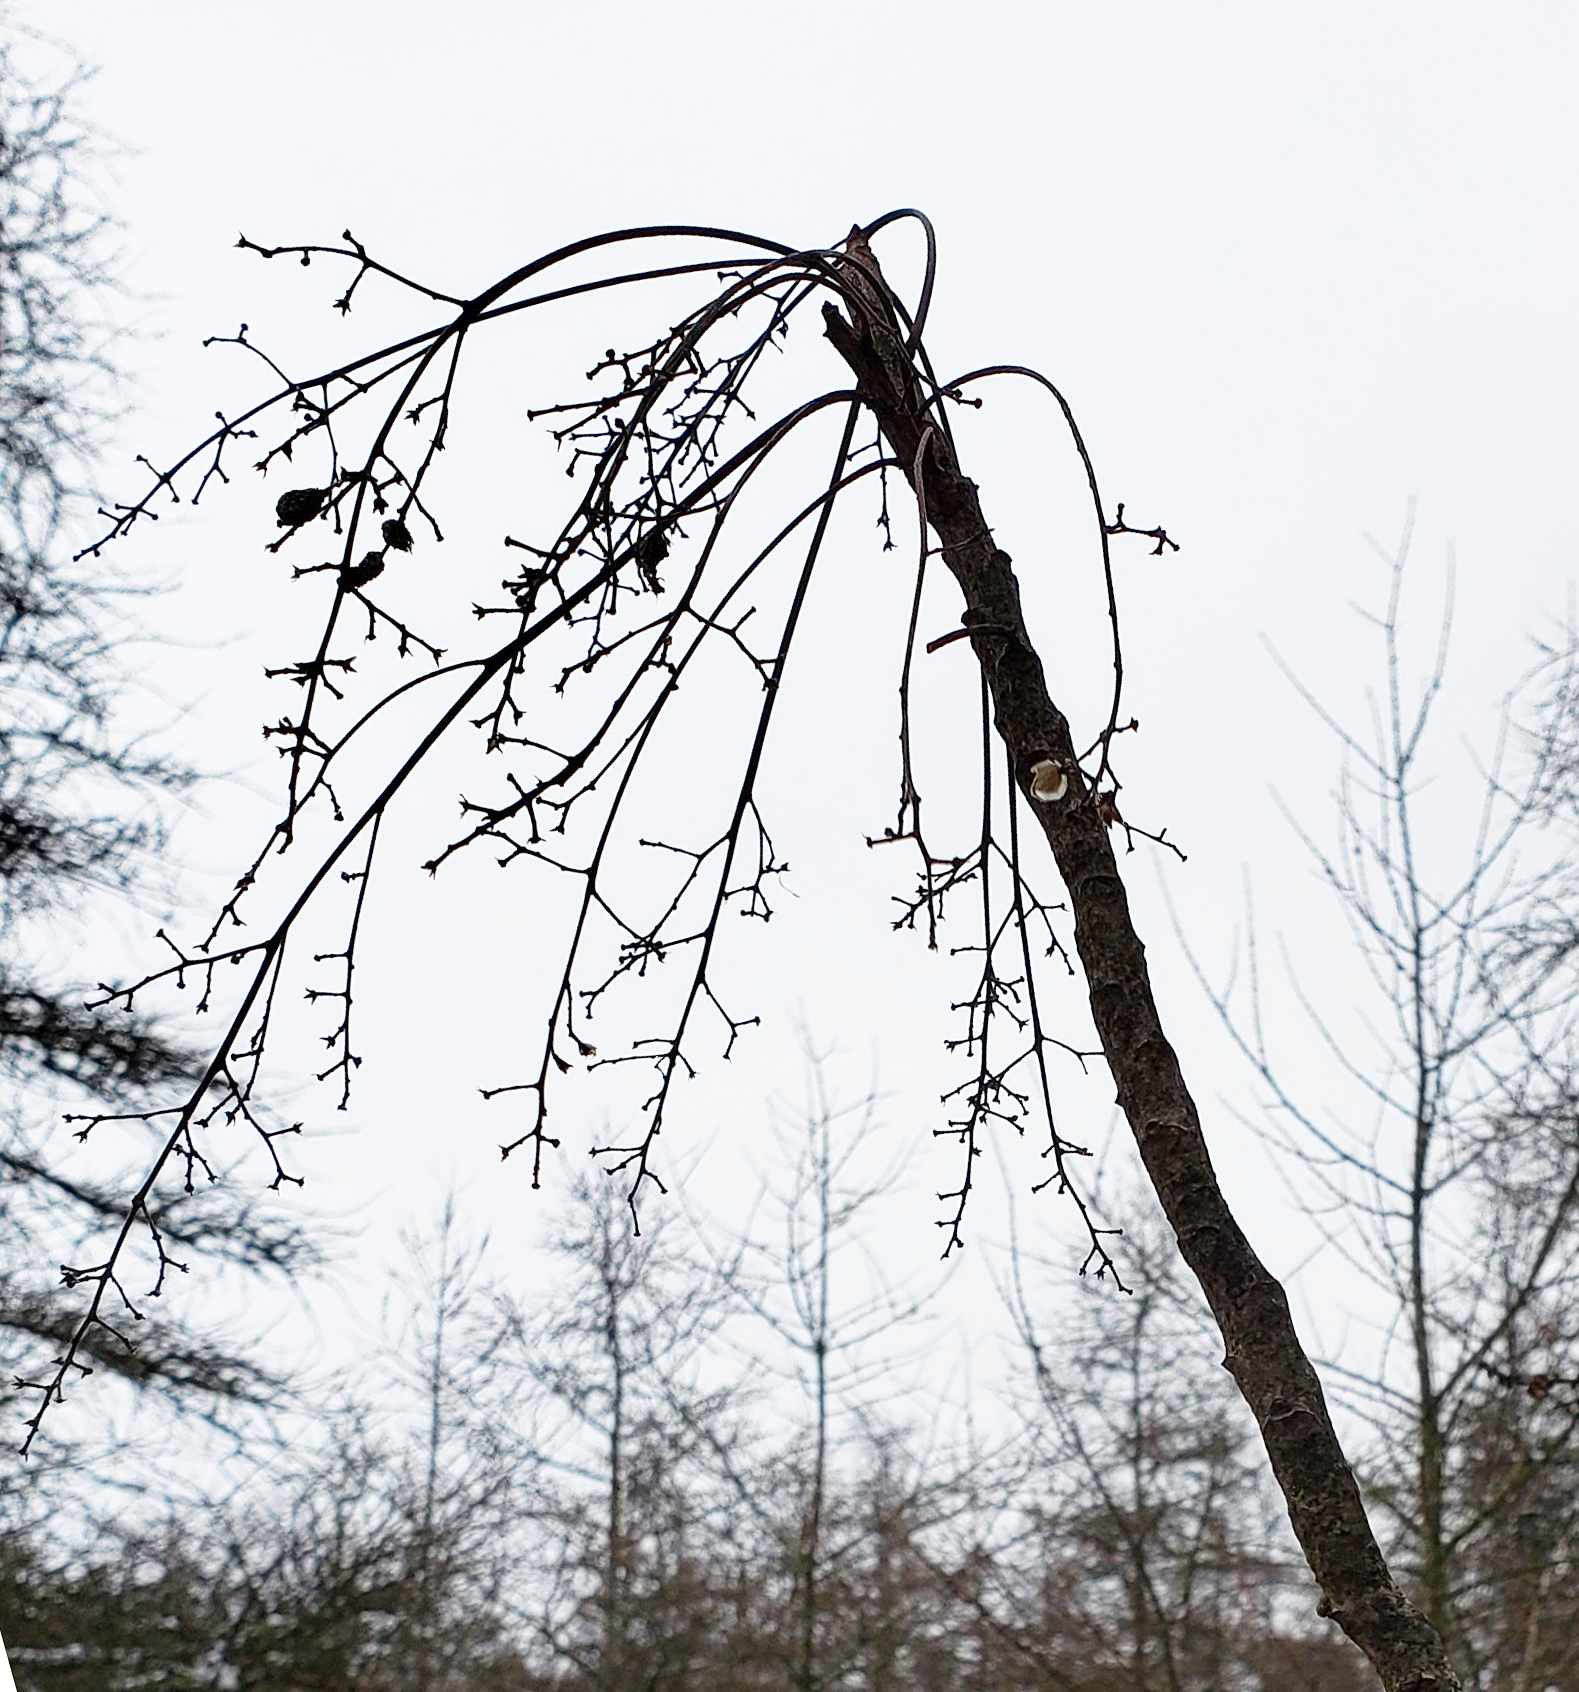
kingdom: Plantae
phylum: Tracheophyta
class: Magnoliopsida
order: Sapindales
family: Anacardiaceae
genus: Toxicodendron
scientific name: Toxicodendron vernix
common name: Poison sumac
